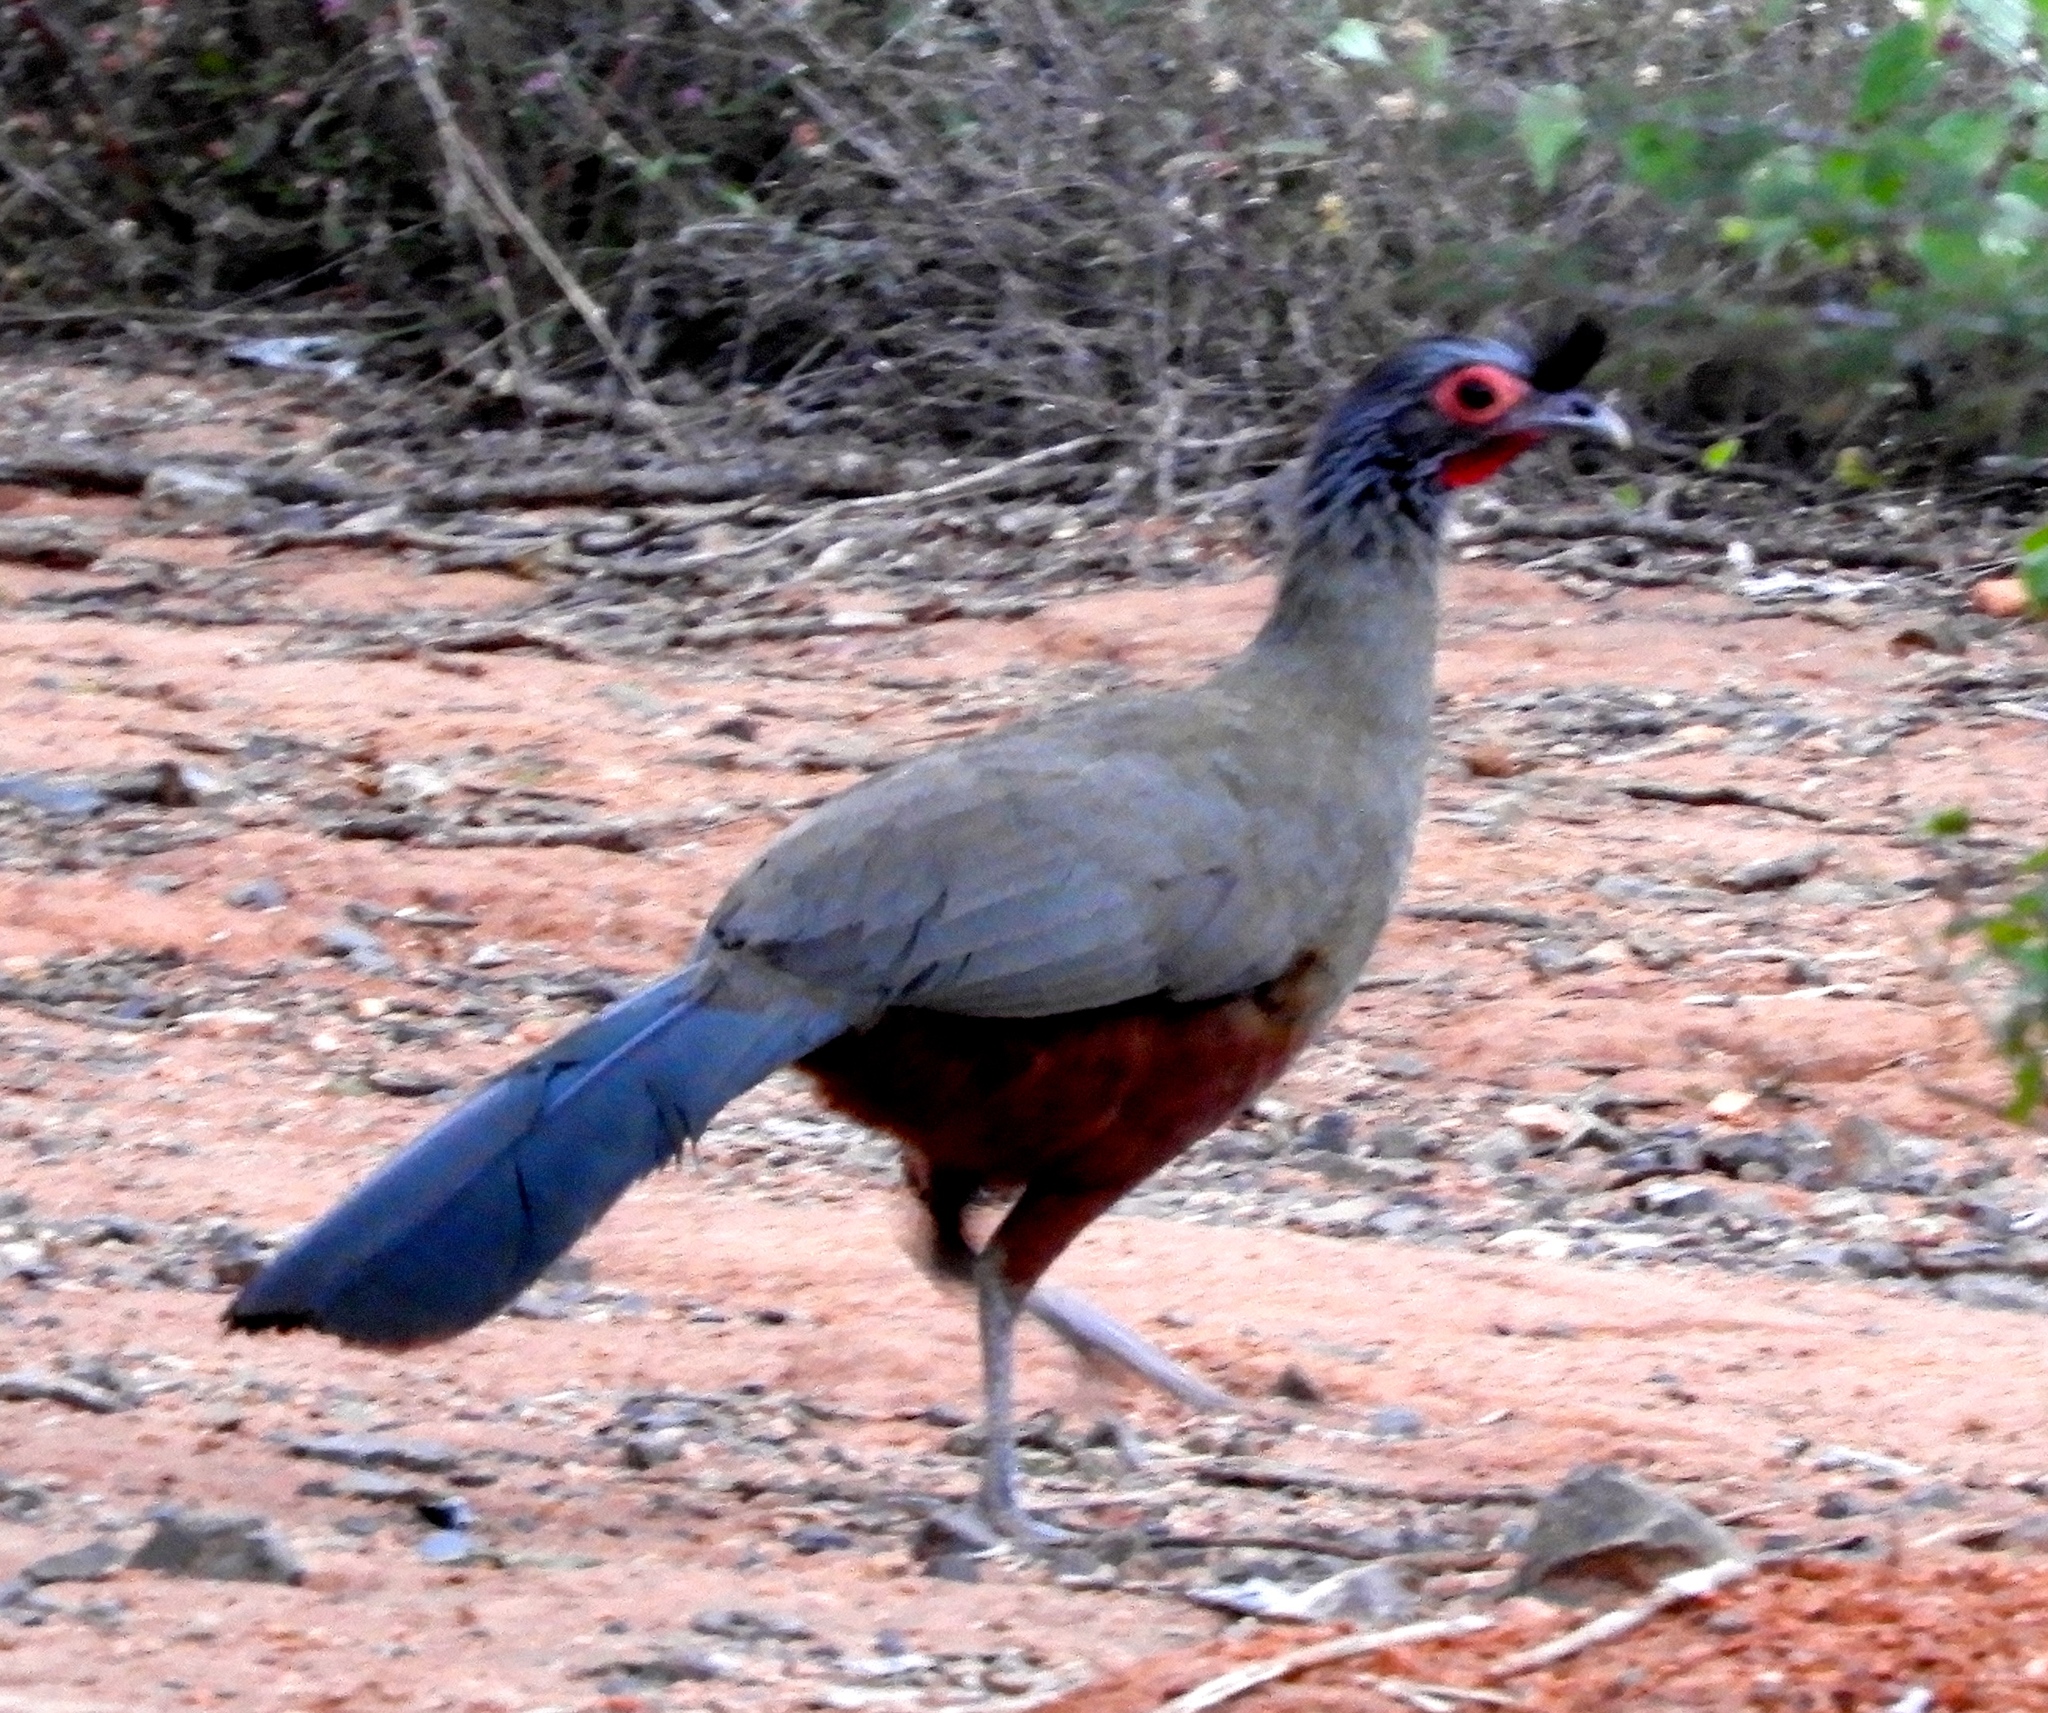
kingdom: Animalia
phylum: Chordata
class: Aves
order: Galliformes
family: Cracidae
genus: Ortalis
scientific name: Ortalis wagleri
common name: Rufous-bellied chachalaca
